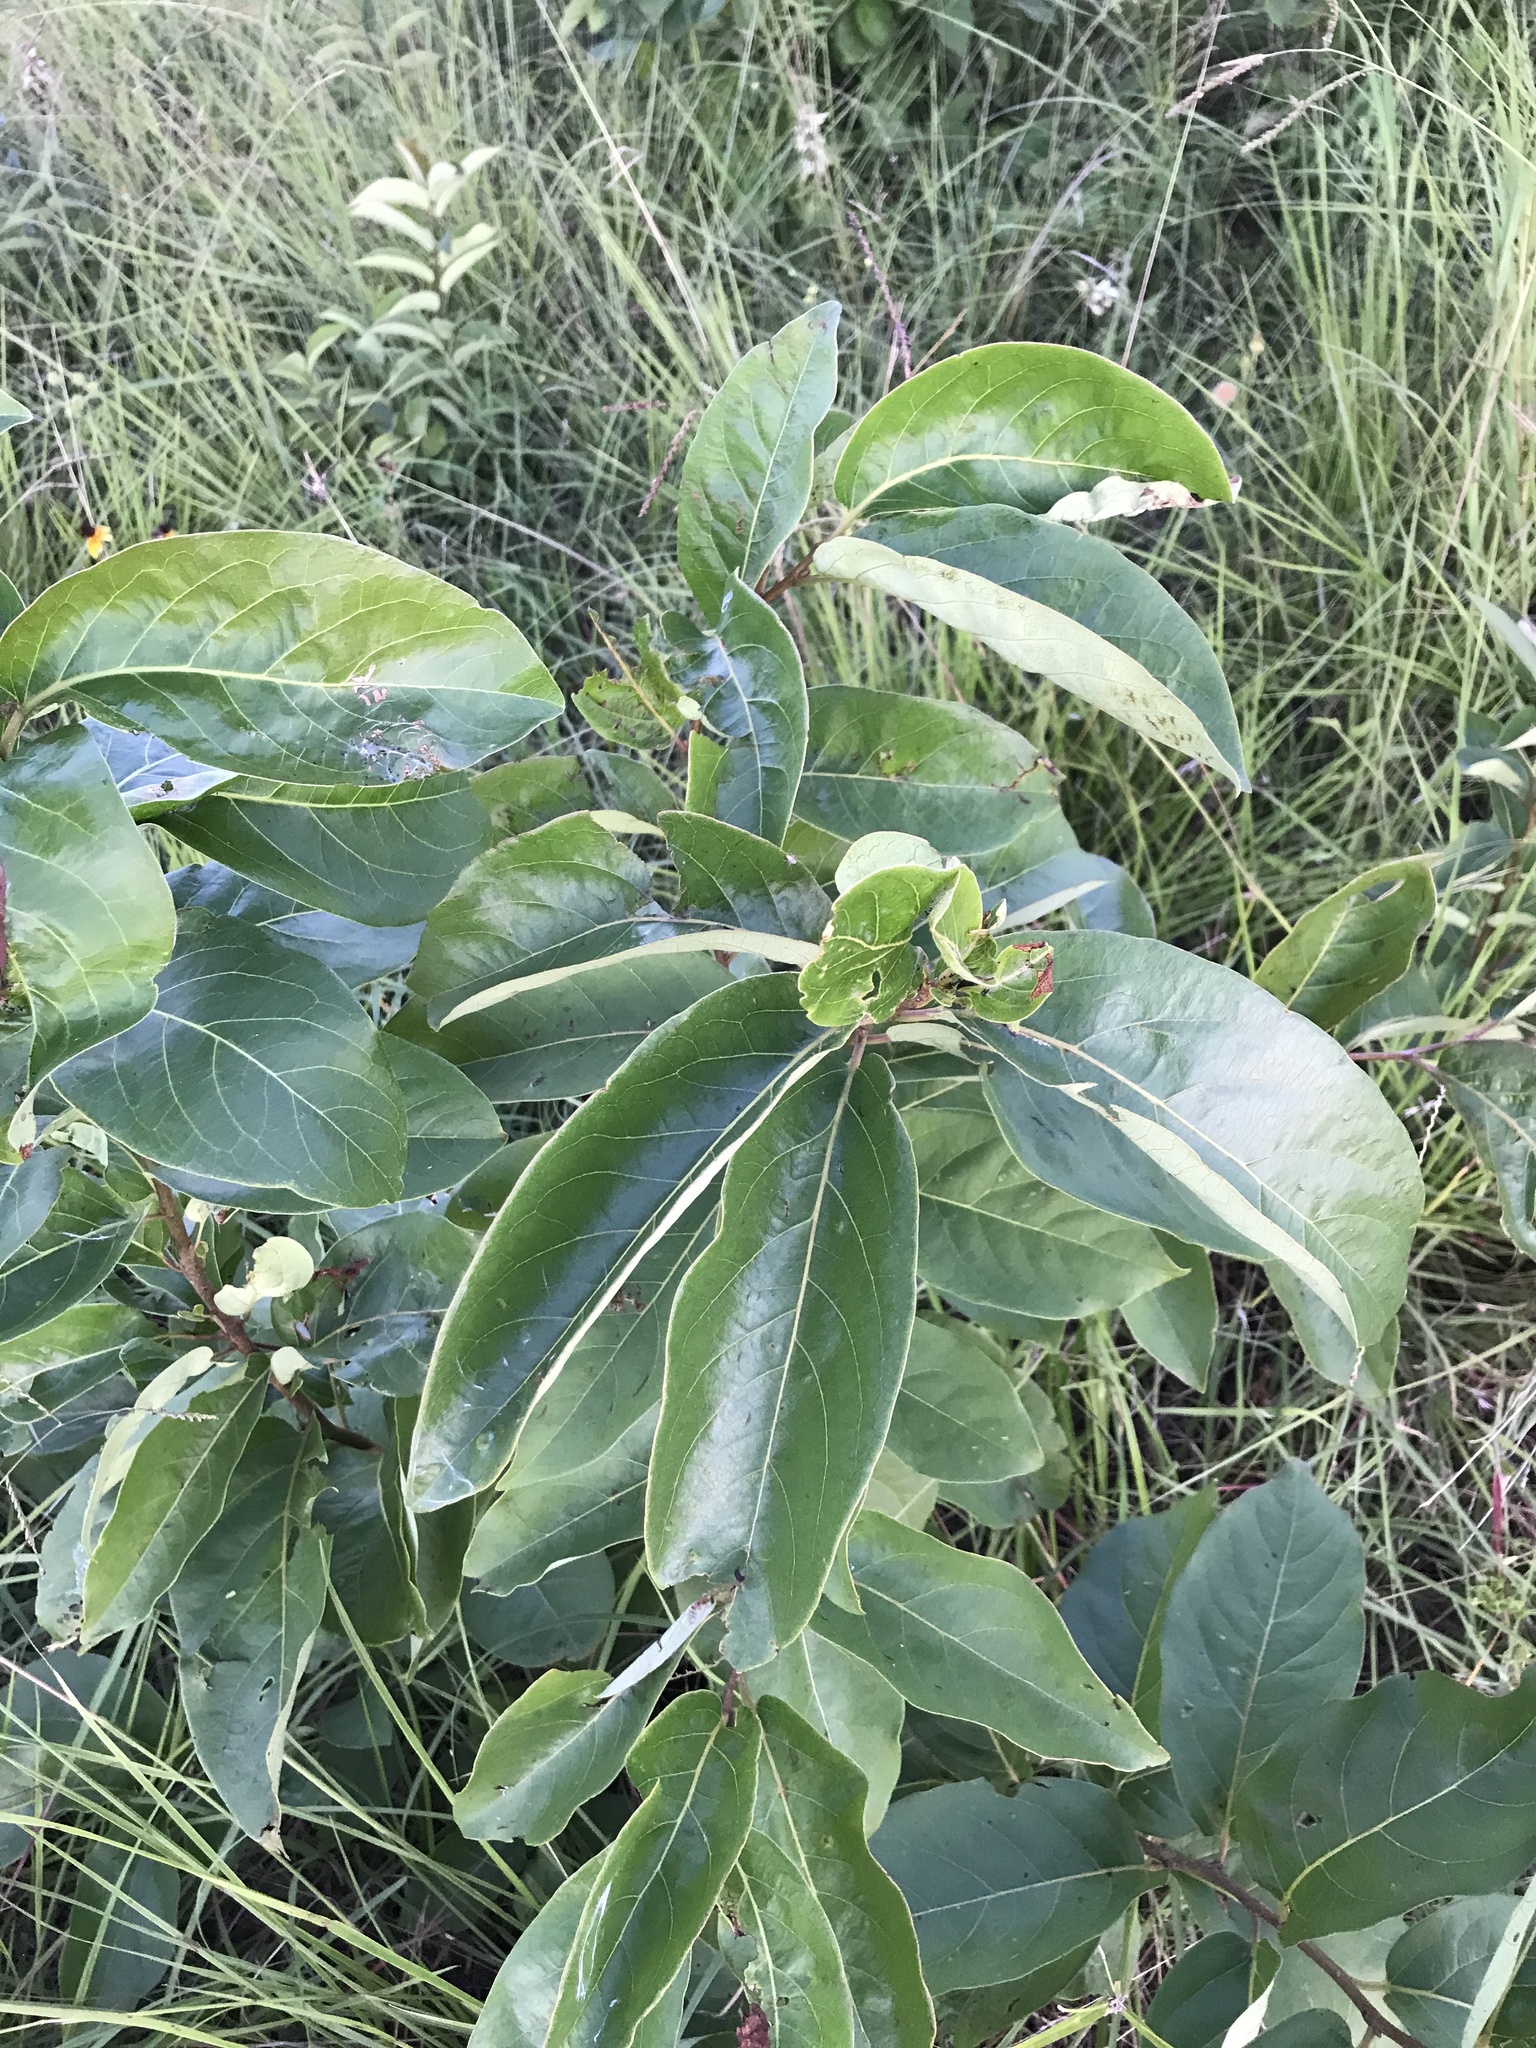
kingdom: Plantae
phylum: Tracheophyta
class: Magnoliopsida
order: Ericales
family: Ebenaceae
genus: Diospyros
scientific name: Diospyros virginiana
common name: Persimmon
